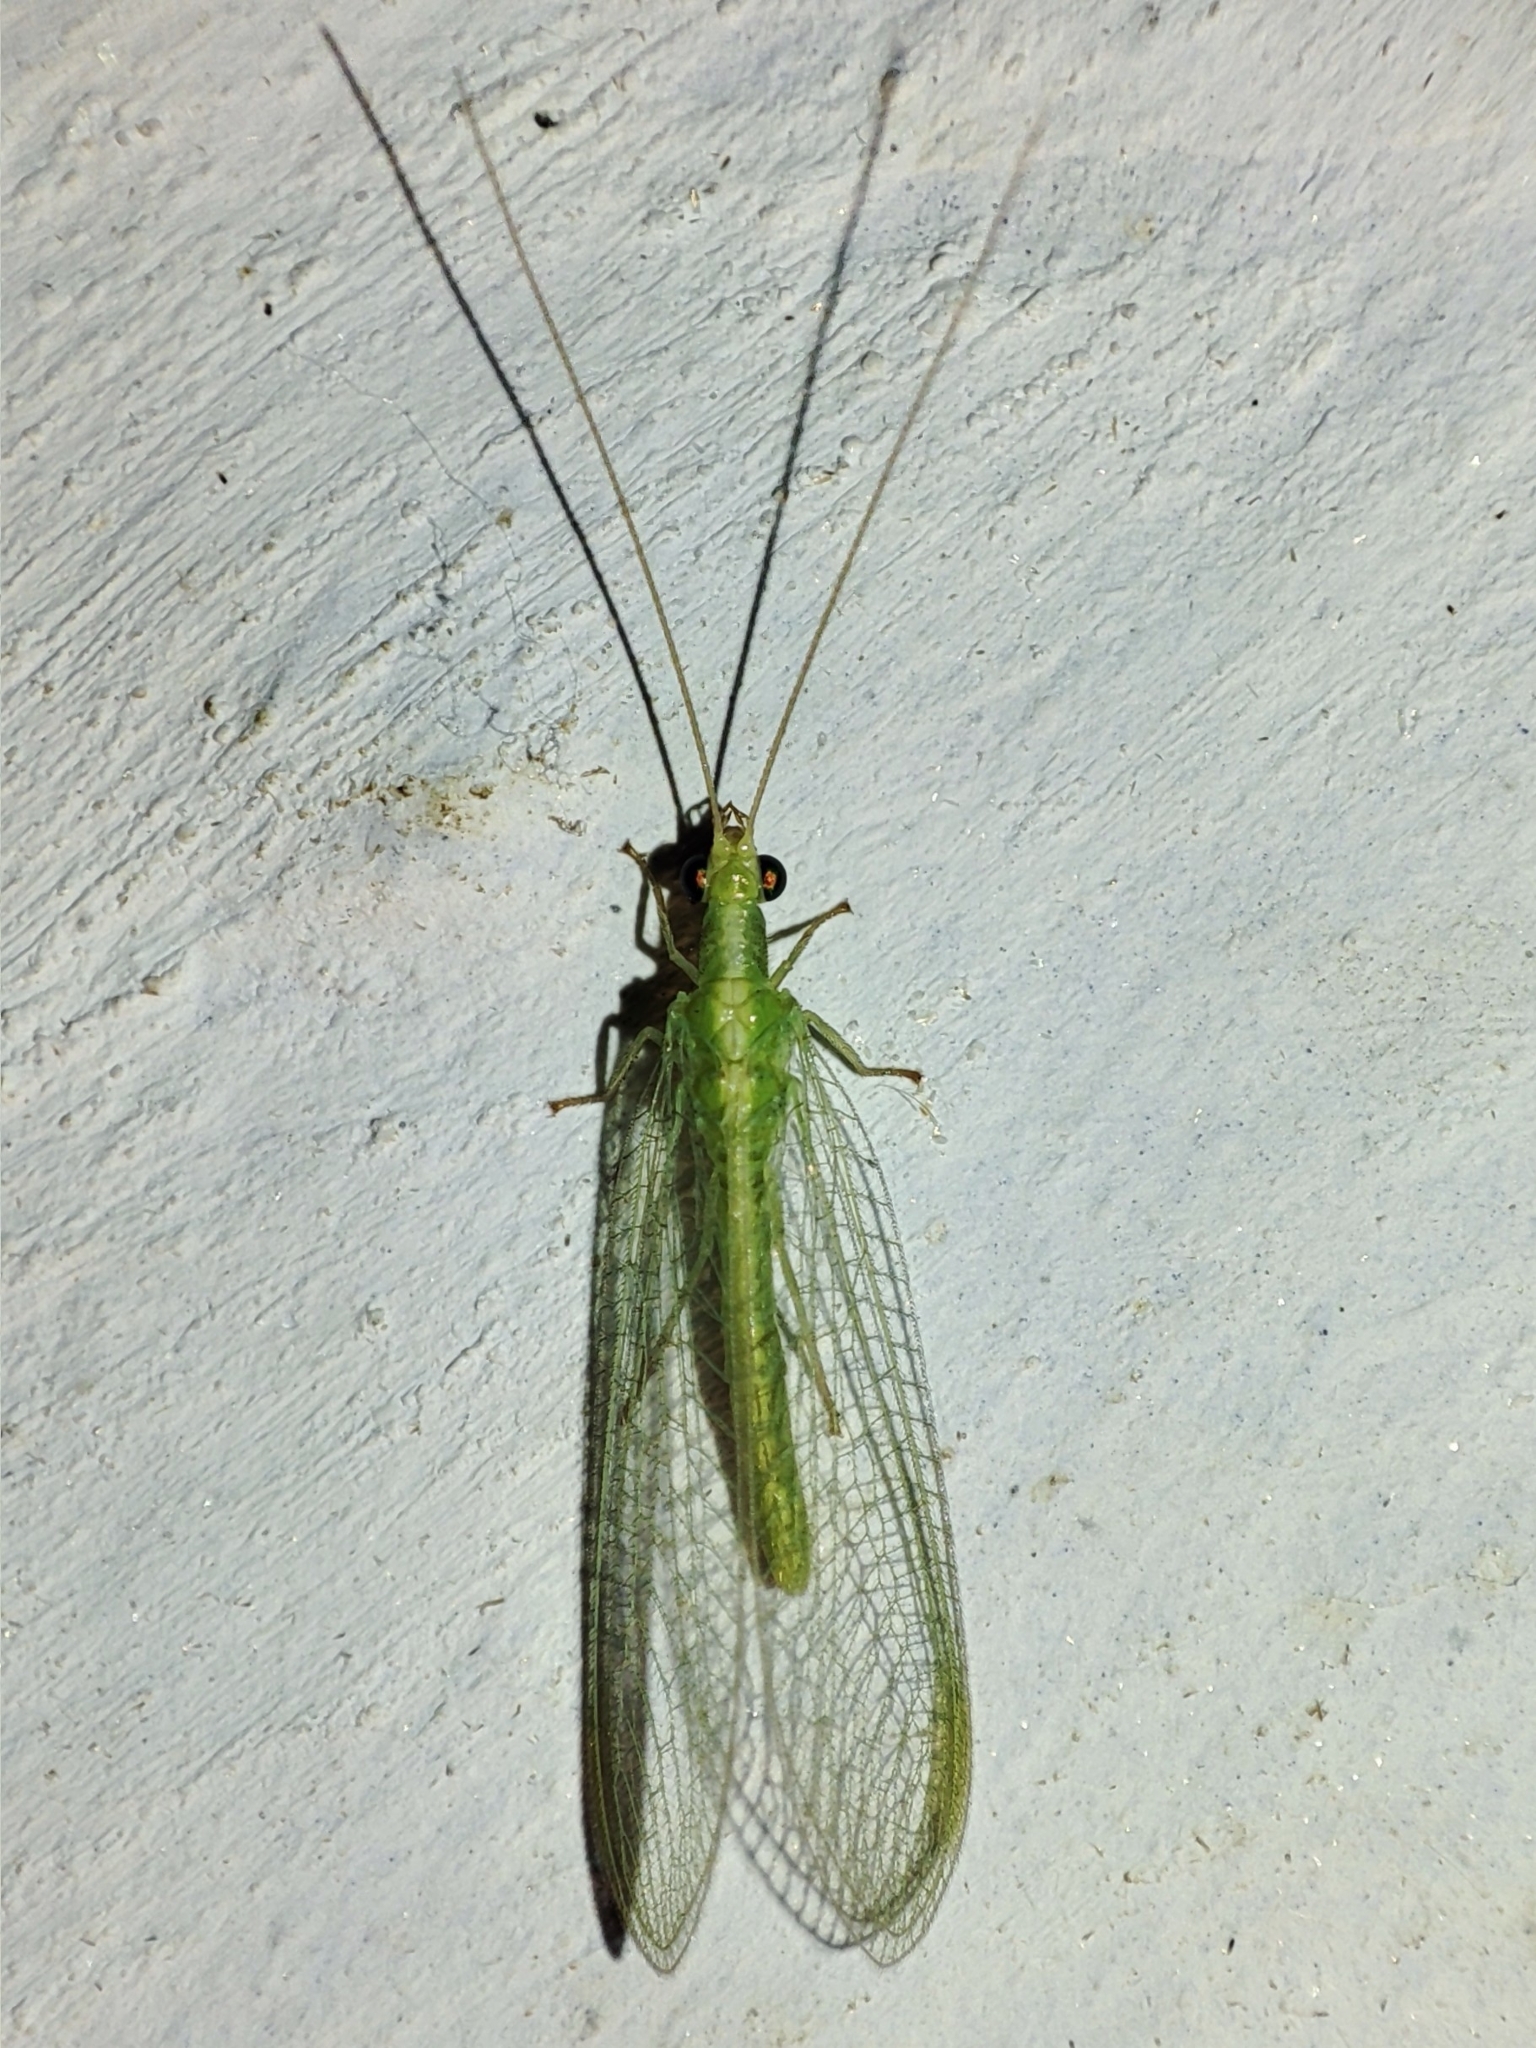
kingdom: Animalia
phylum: Arthropoda
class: Insecta
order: Neuroptera
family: Chrysopidae
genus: Chrysoperla
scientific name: Chrysoperla
